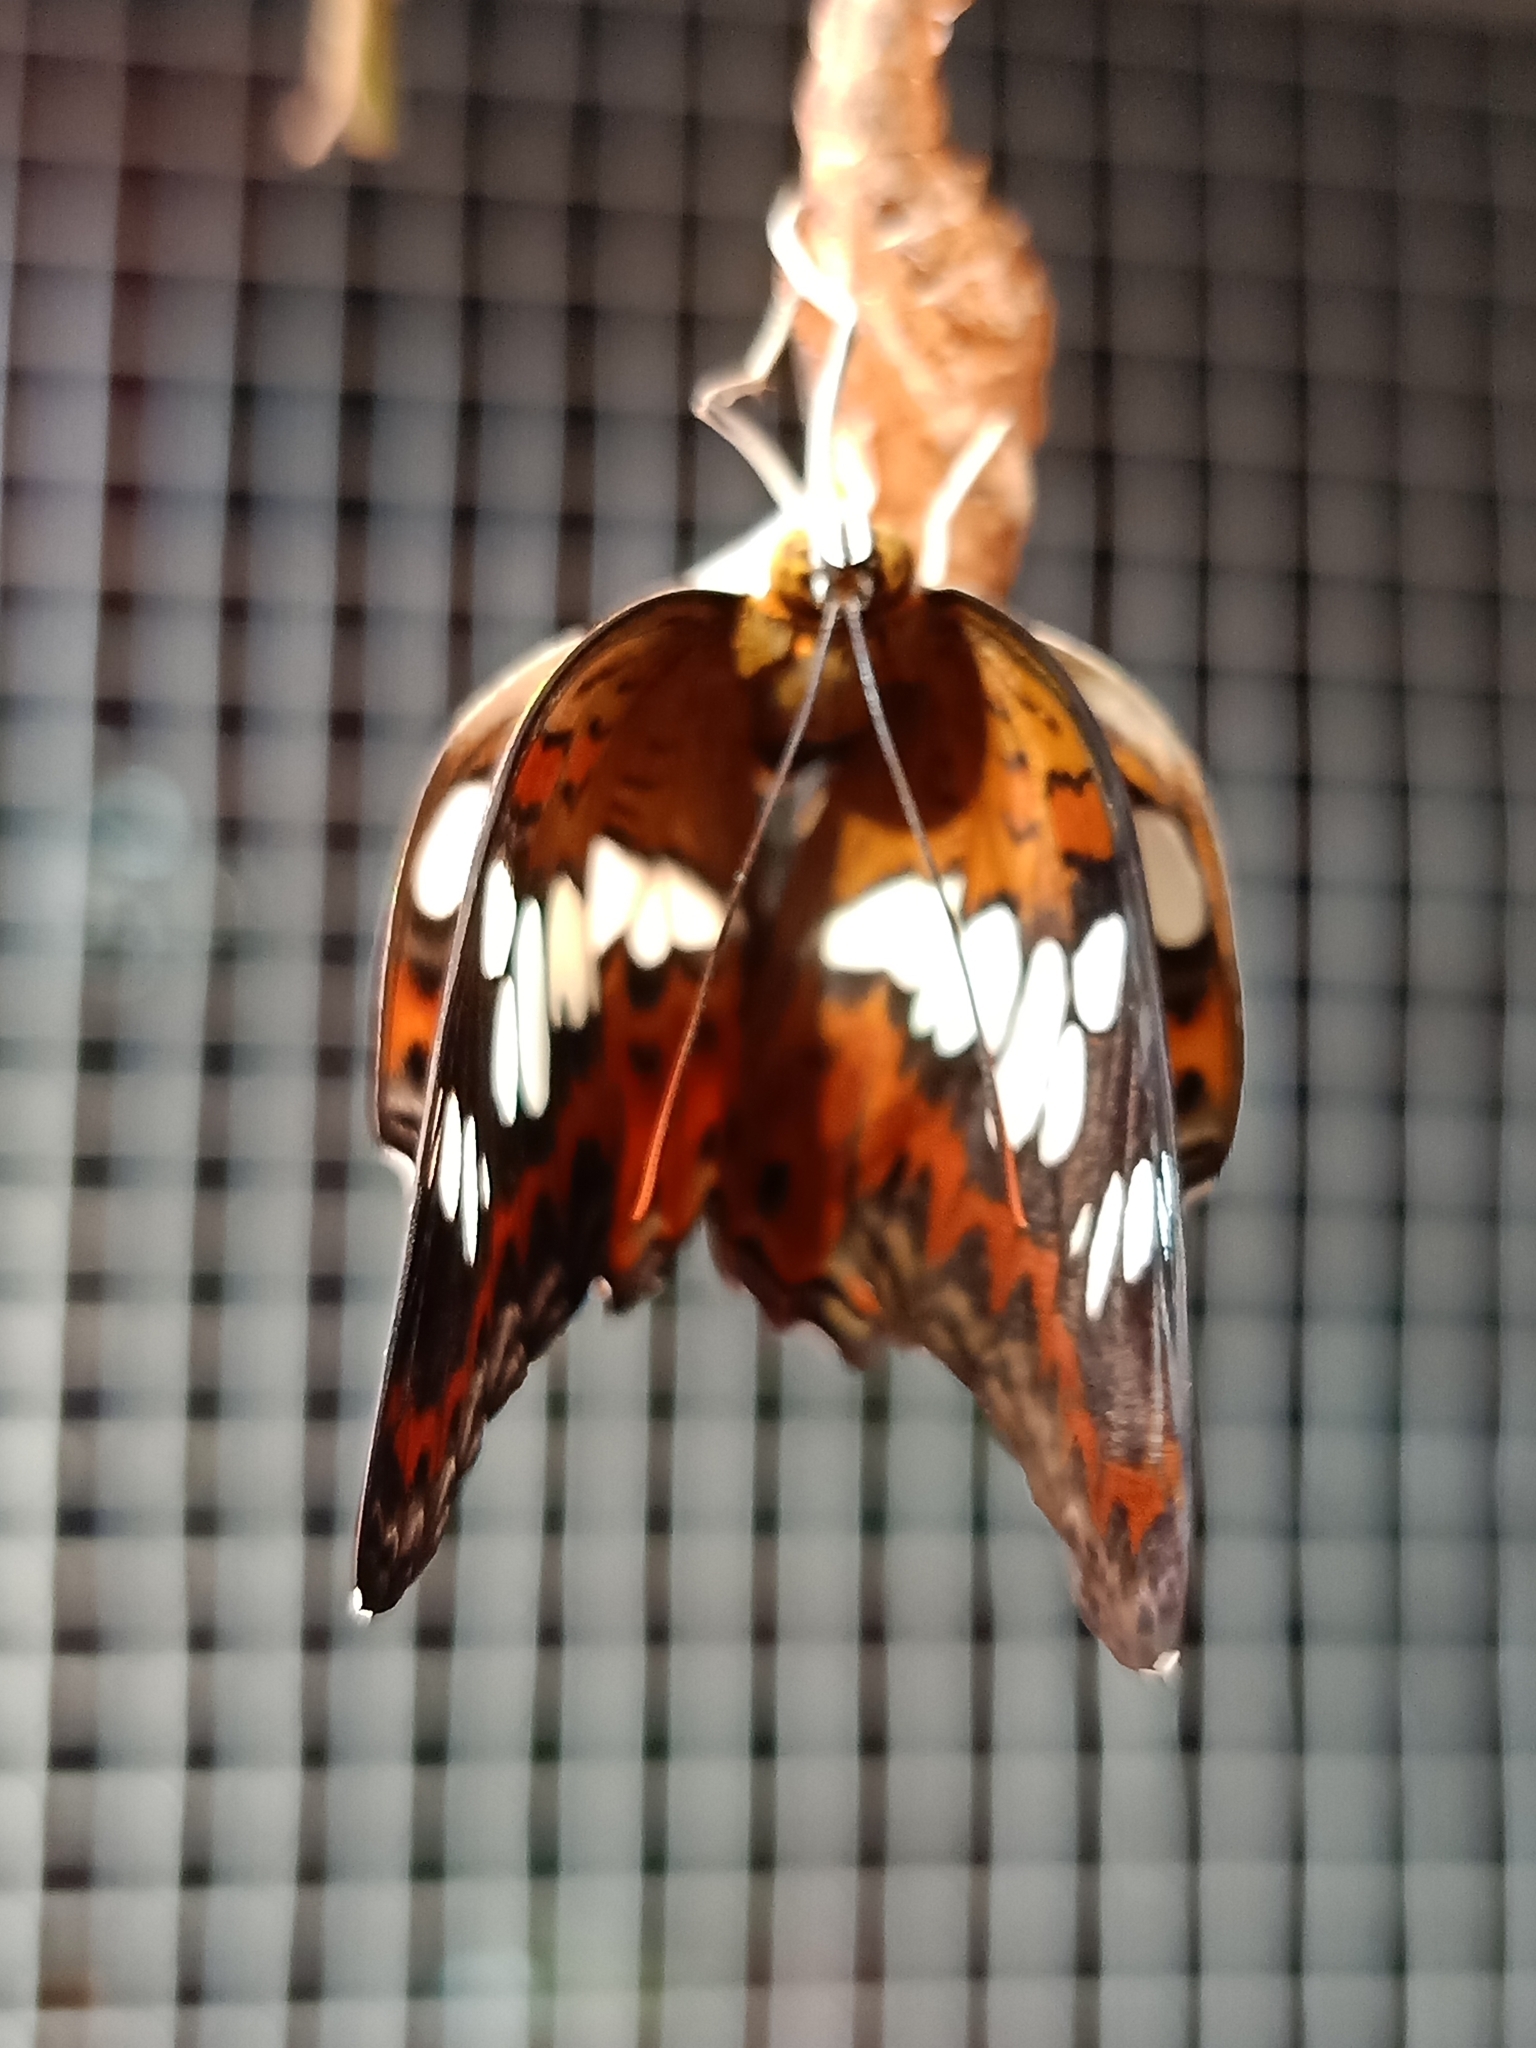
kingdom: Animalia
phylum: Arthropoda
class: Insecta
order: Lepidoptera
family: Nymphalidae
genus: Limenitis
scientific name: Limenitis Moduza procris
